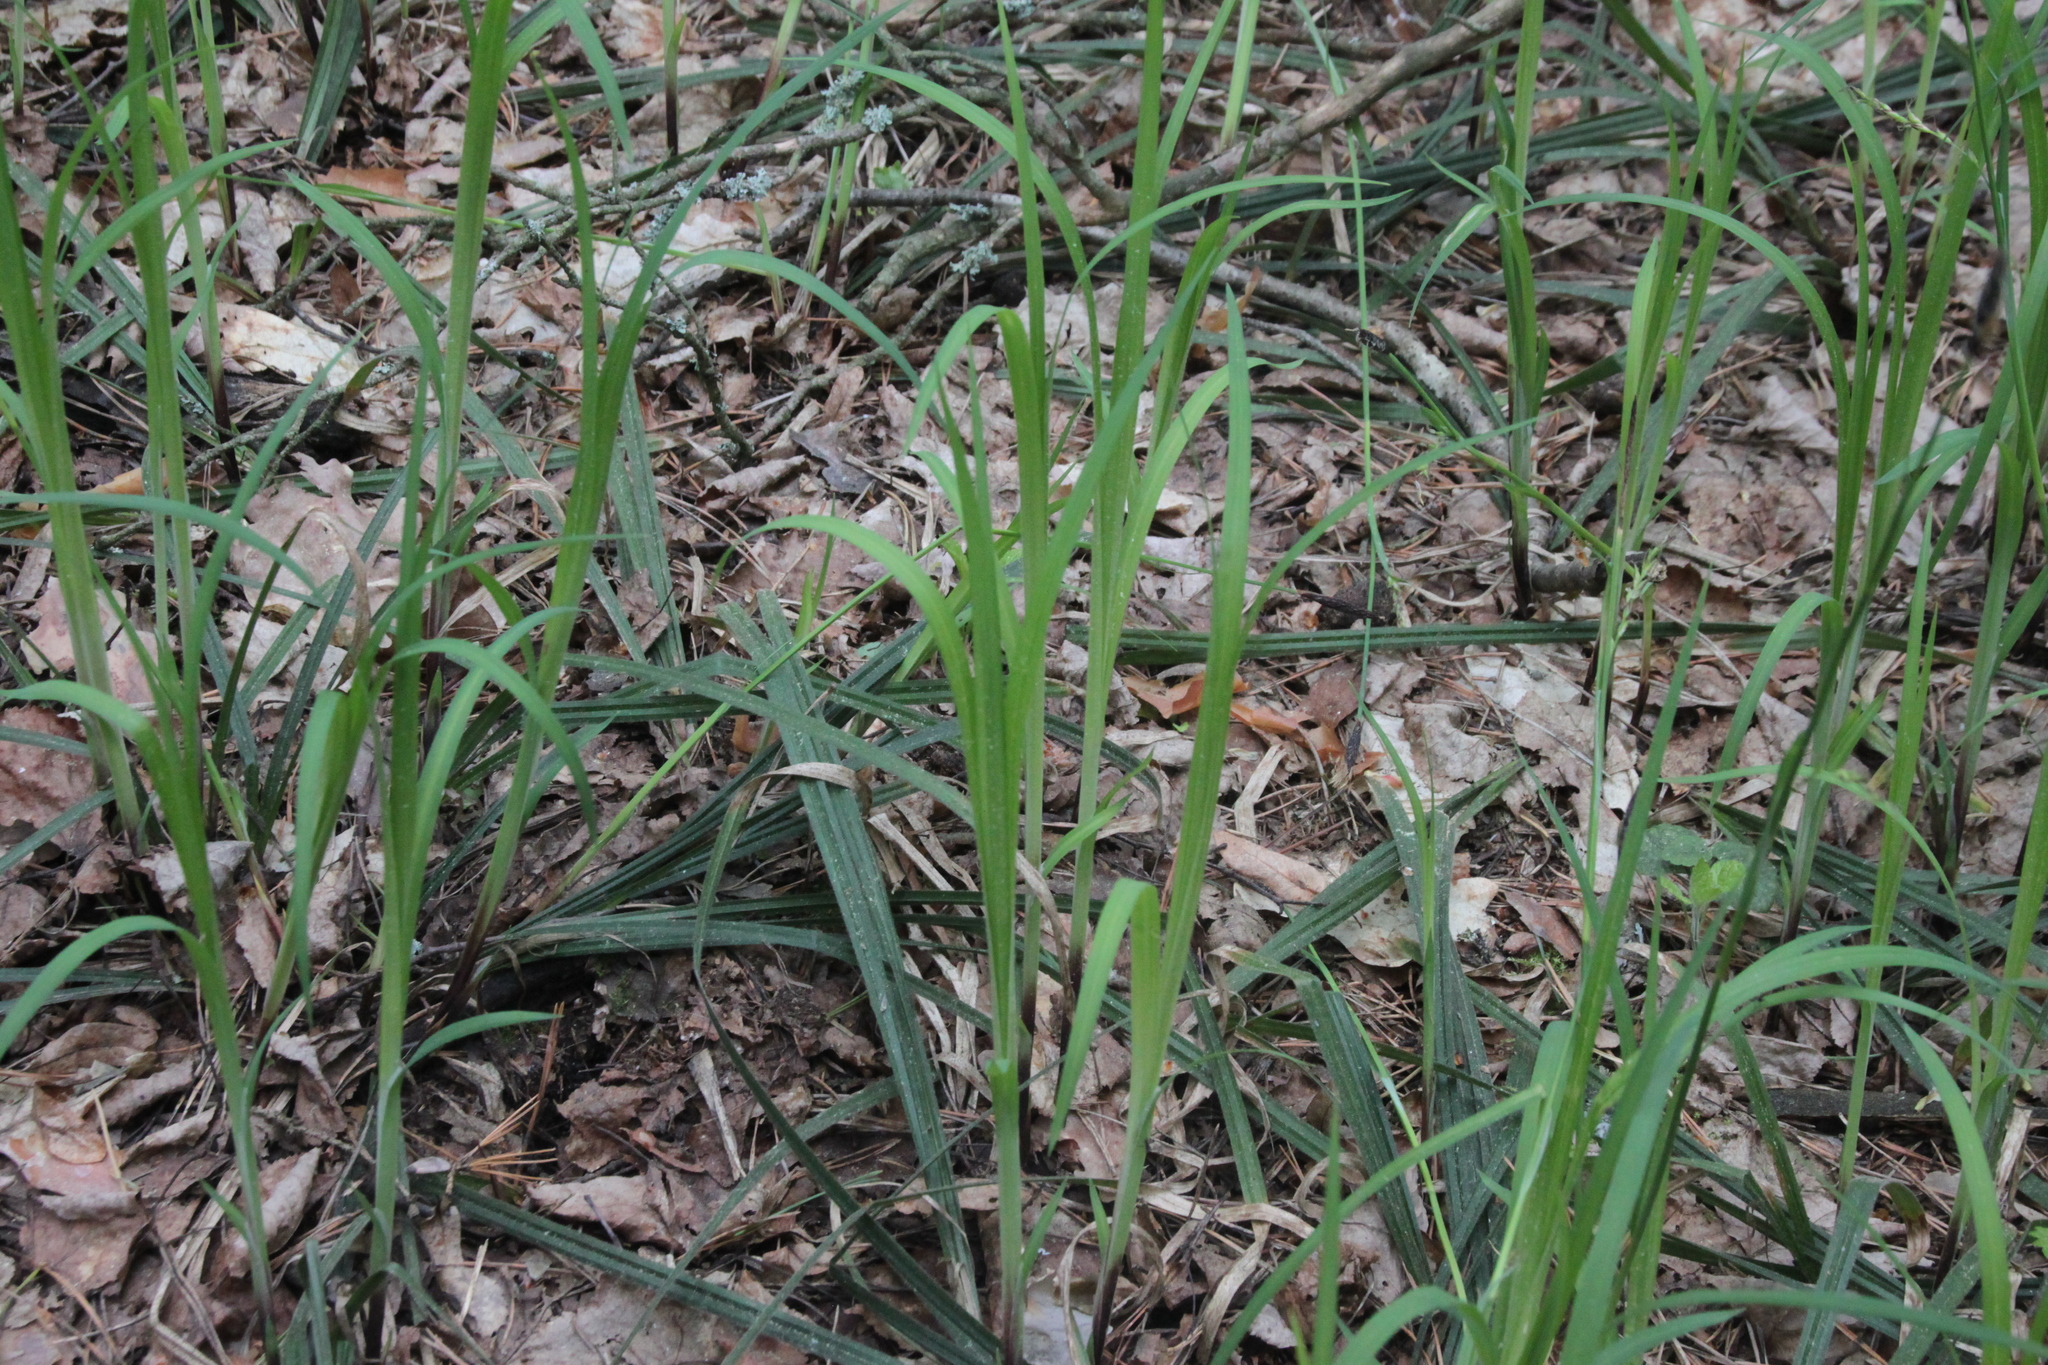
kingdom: Plantae
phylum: Tracheophyta
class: Liliopsida
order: Poales
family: Cyperaceae
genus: Carex
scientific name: Carex pilosa
